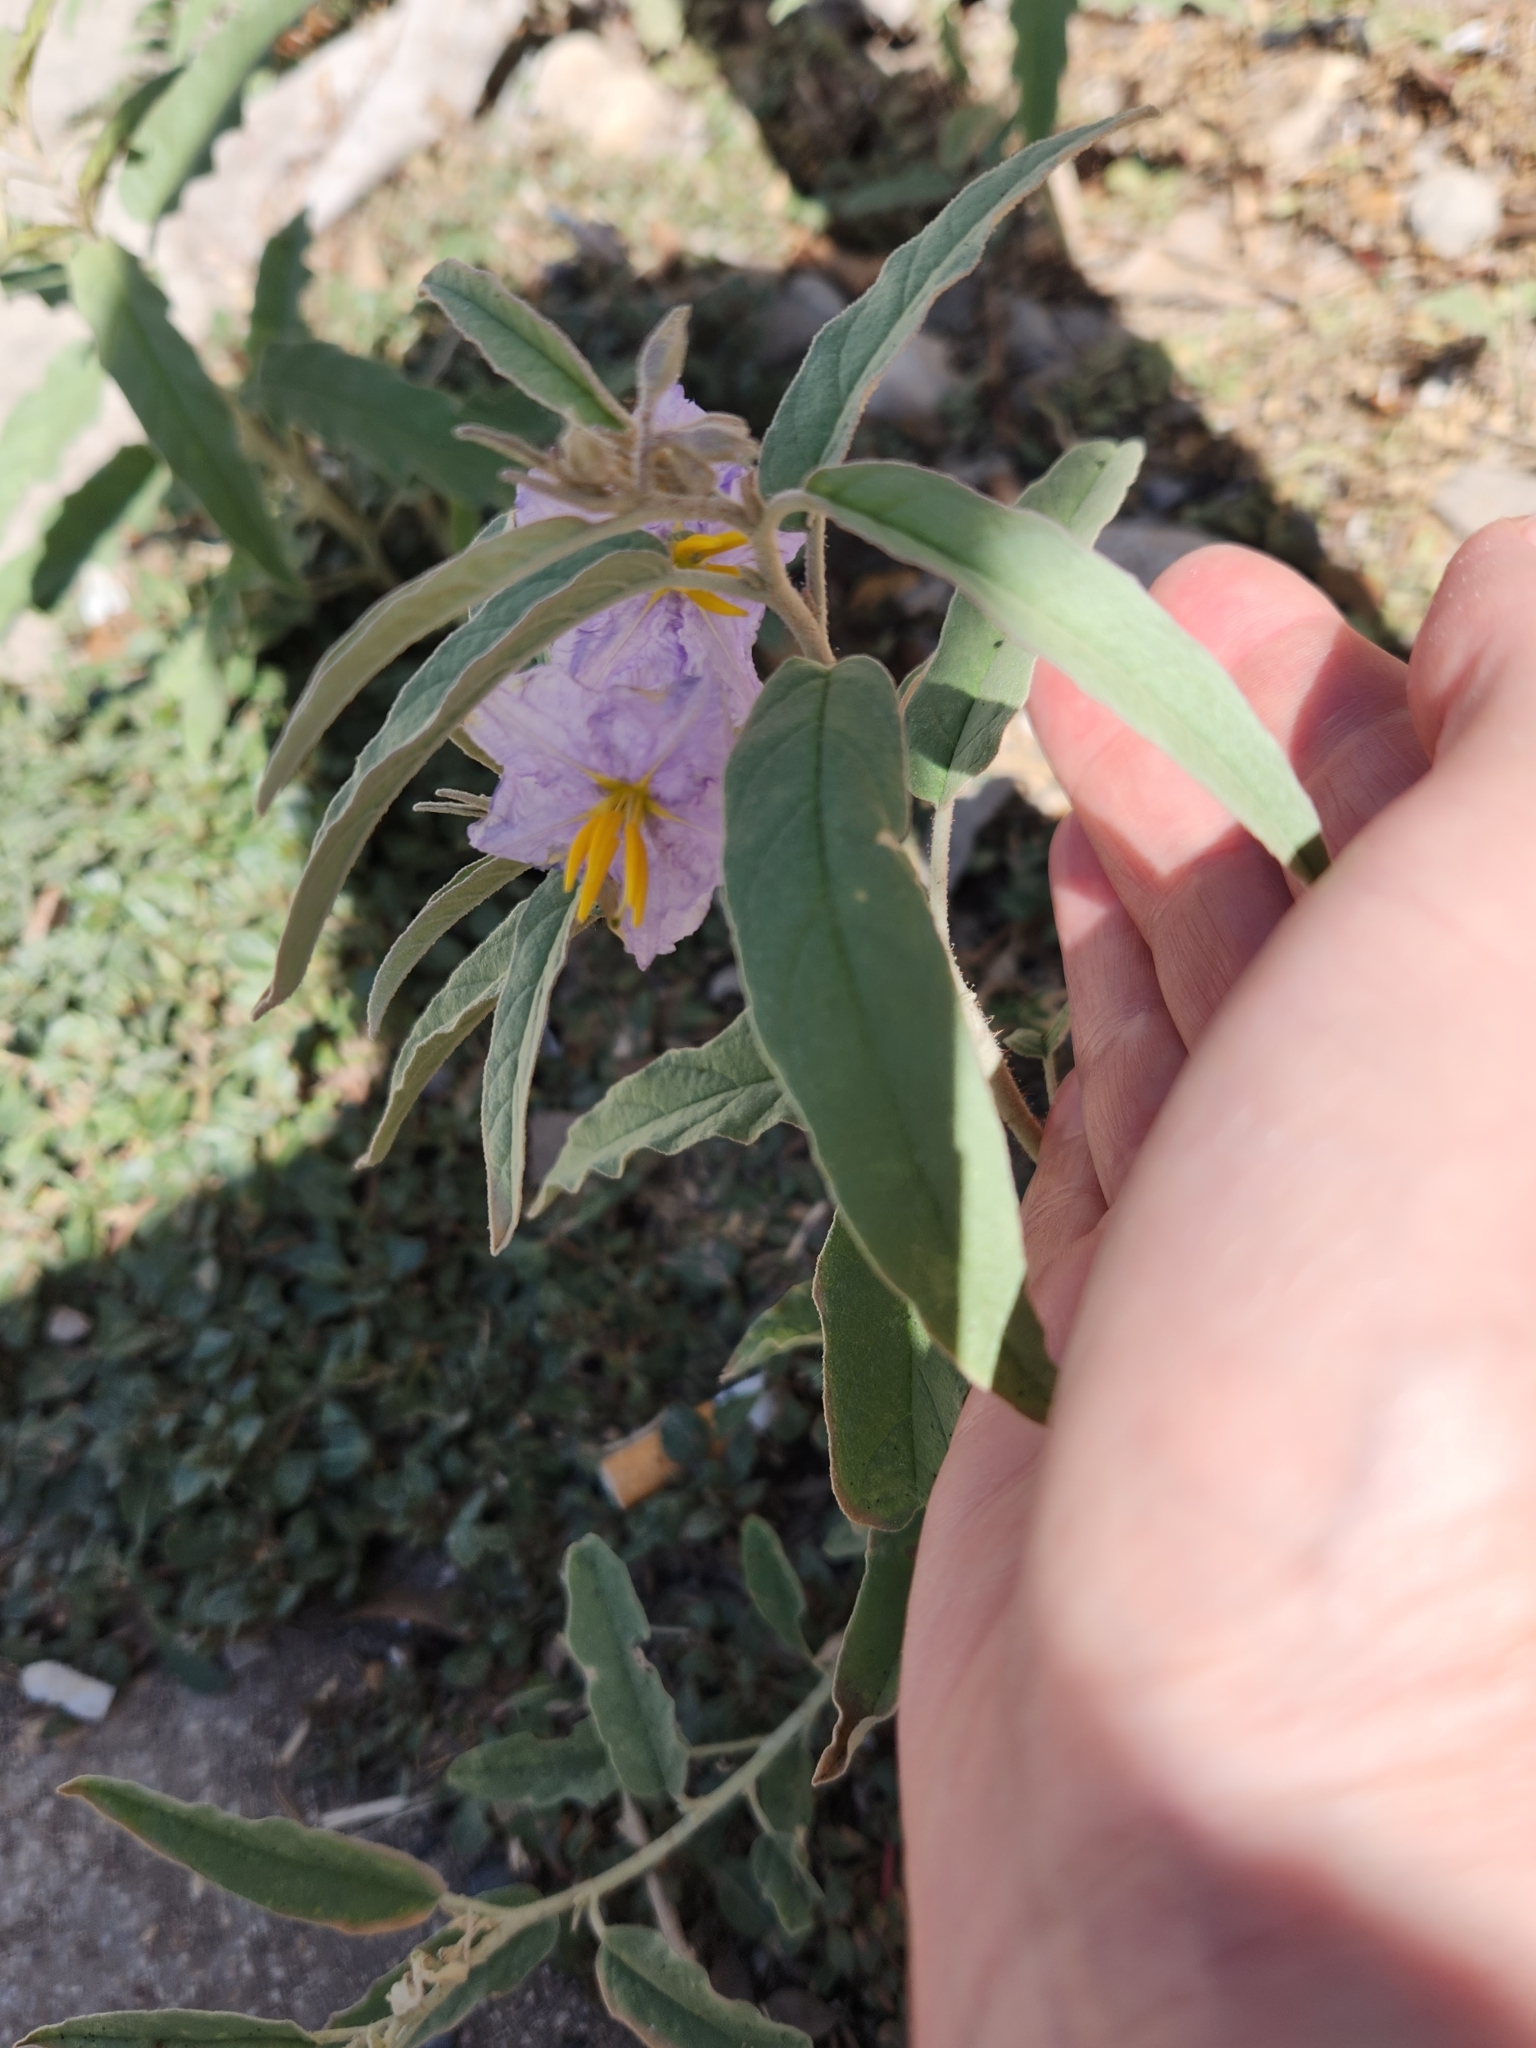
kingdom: Plantae
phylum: Tracheophyta
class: Magnoliopsida
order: Solanales
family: Solanaceae
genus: Solanum
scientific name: Solanum elaeagnifolium
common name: Silverleaf nightshade
